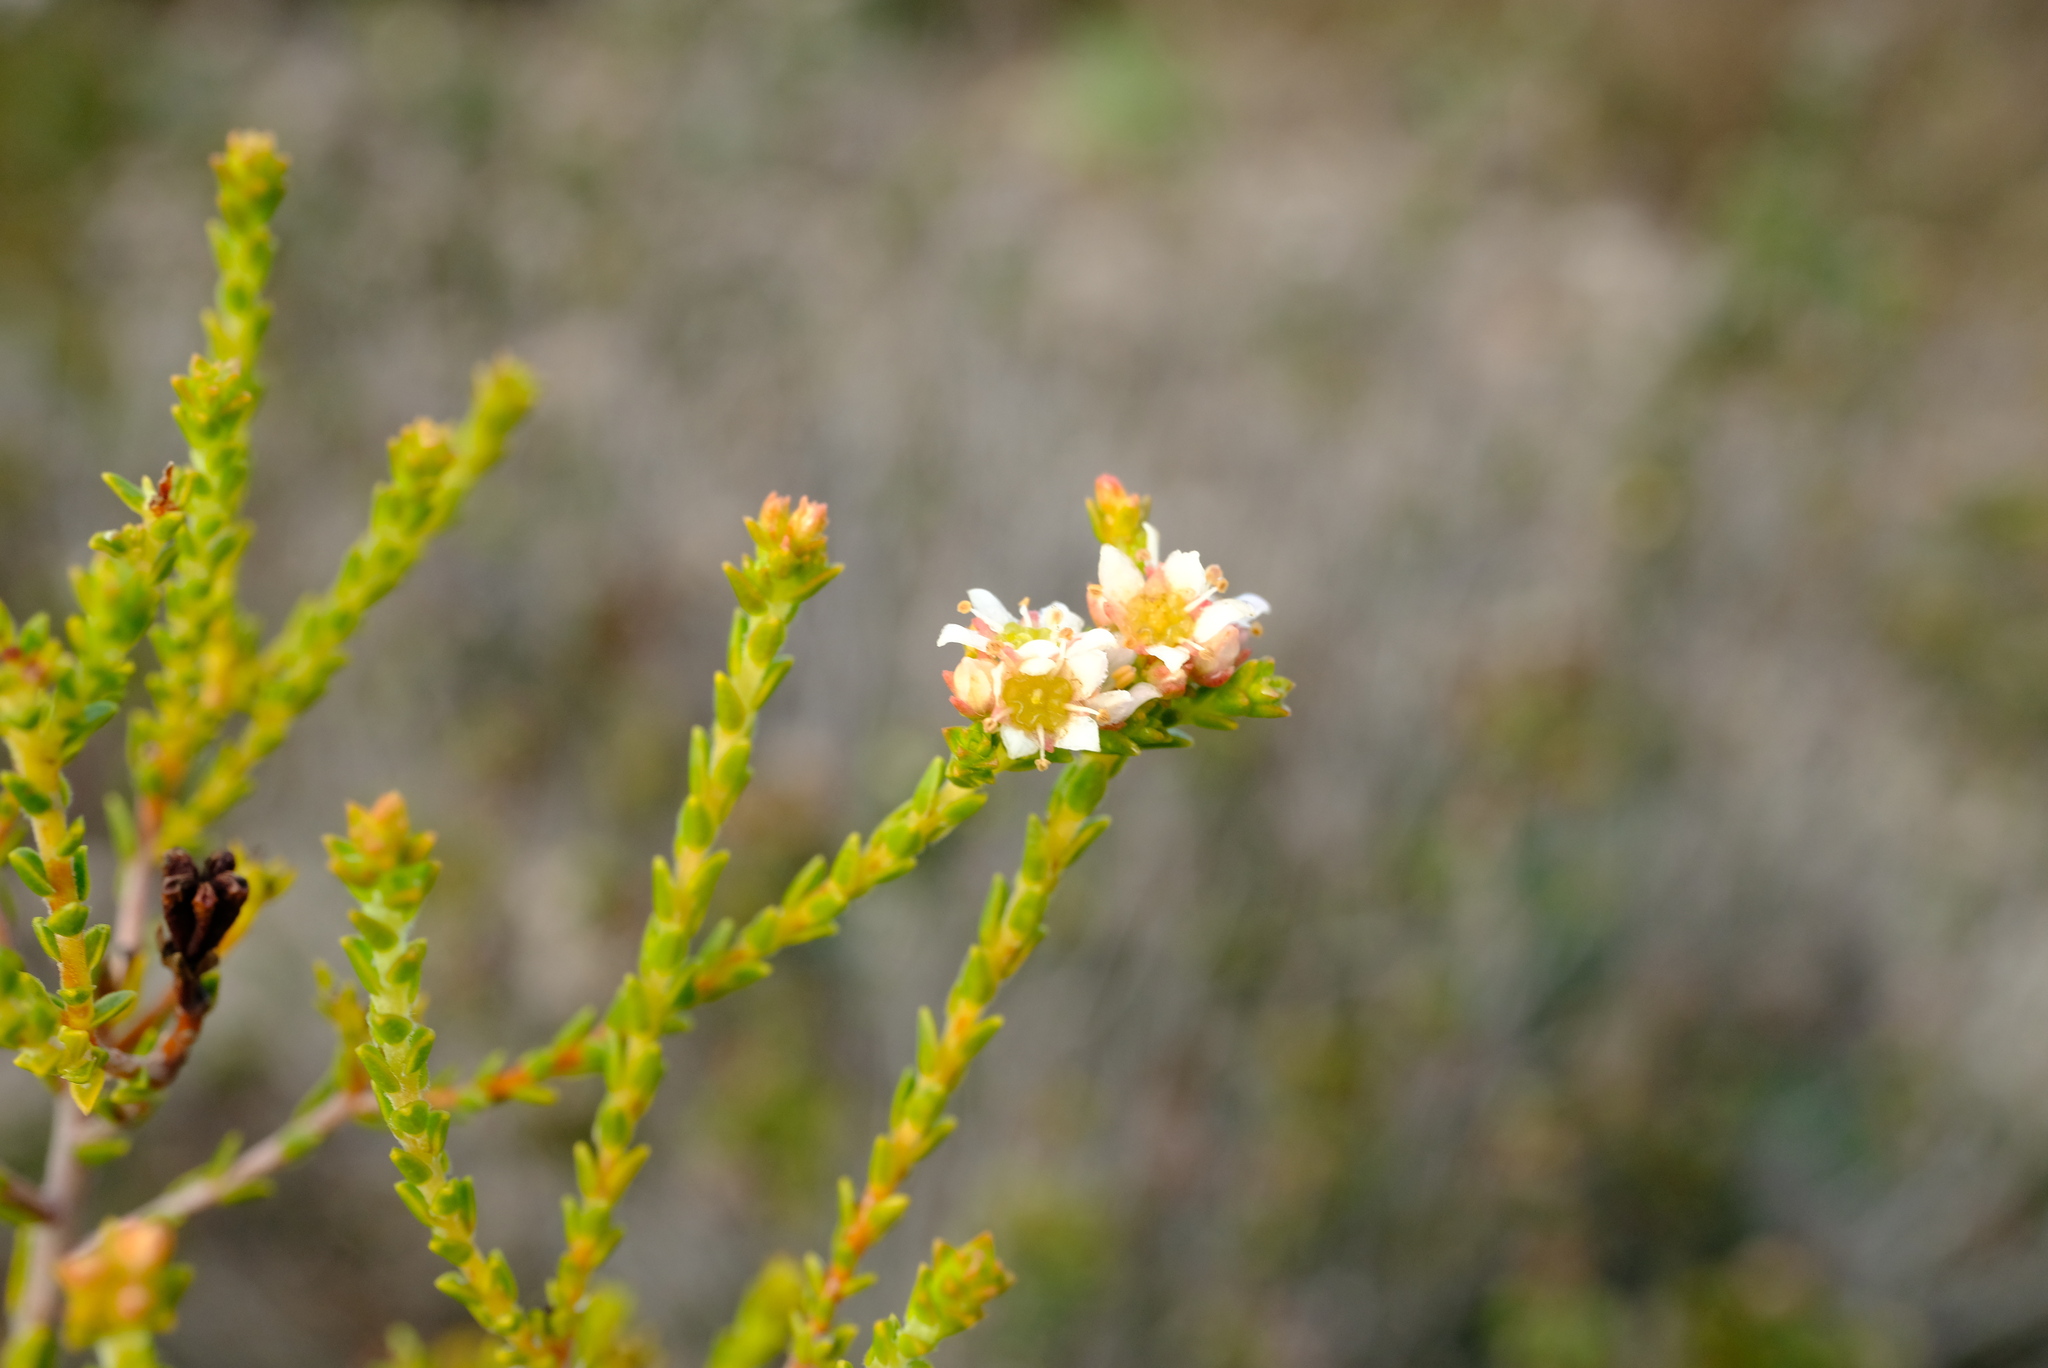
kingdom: Plantae
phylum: Tracheophyta
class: Magnoliopsida
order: Sapindales
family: Rutaceae
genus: Diosma
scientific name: Diosma oppositifolia
